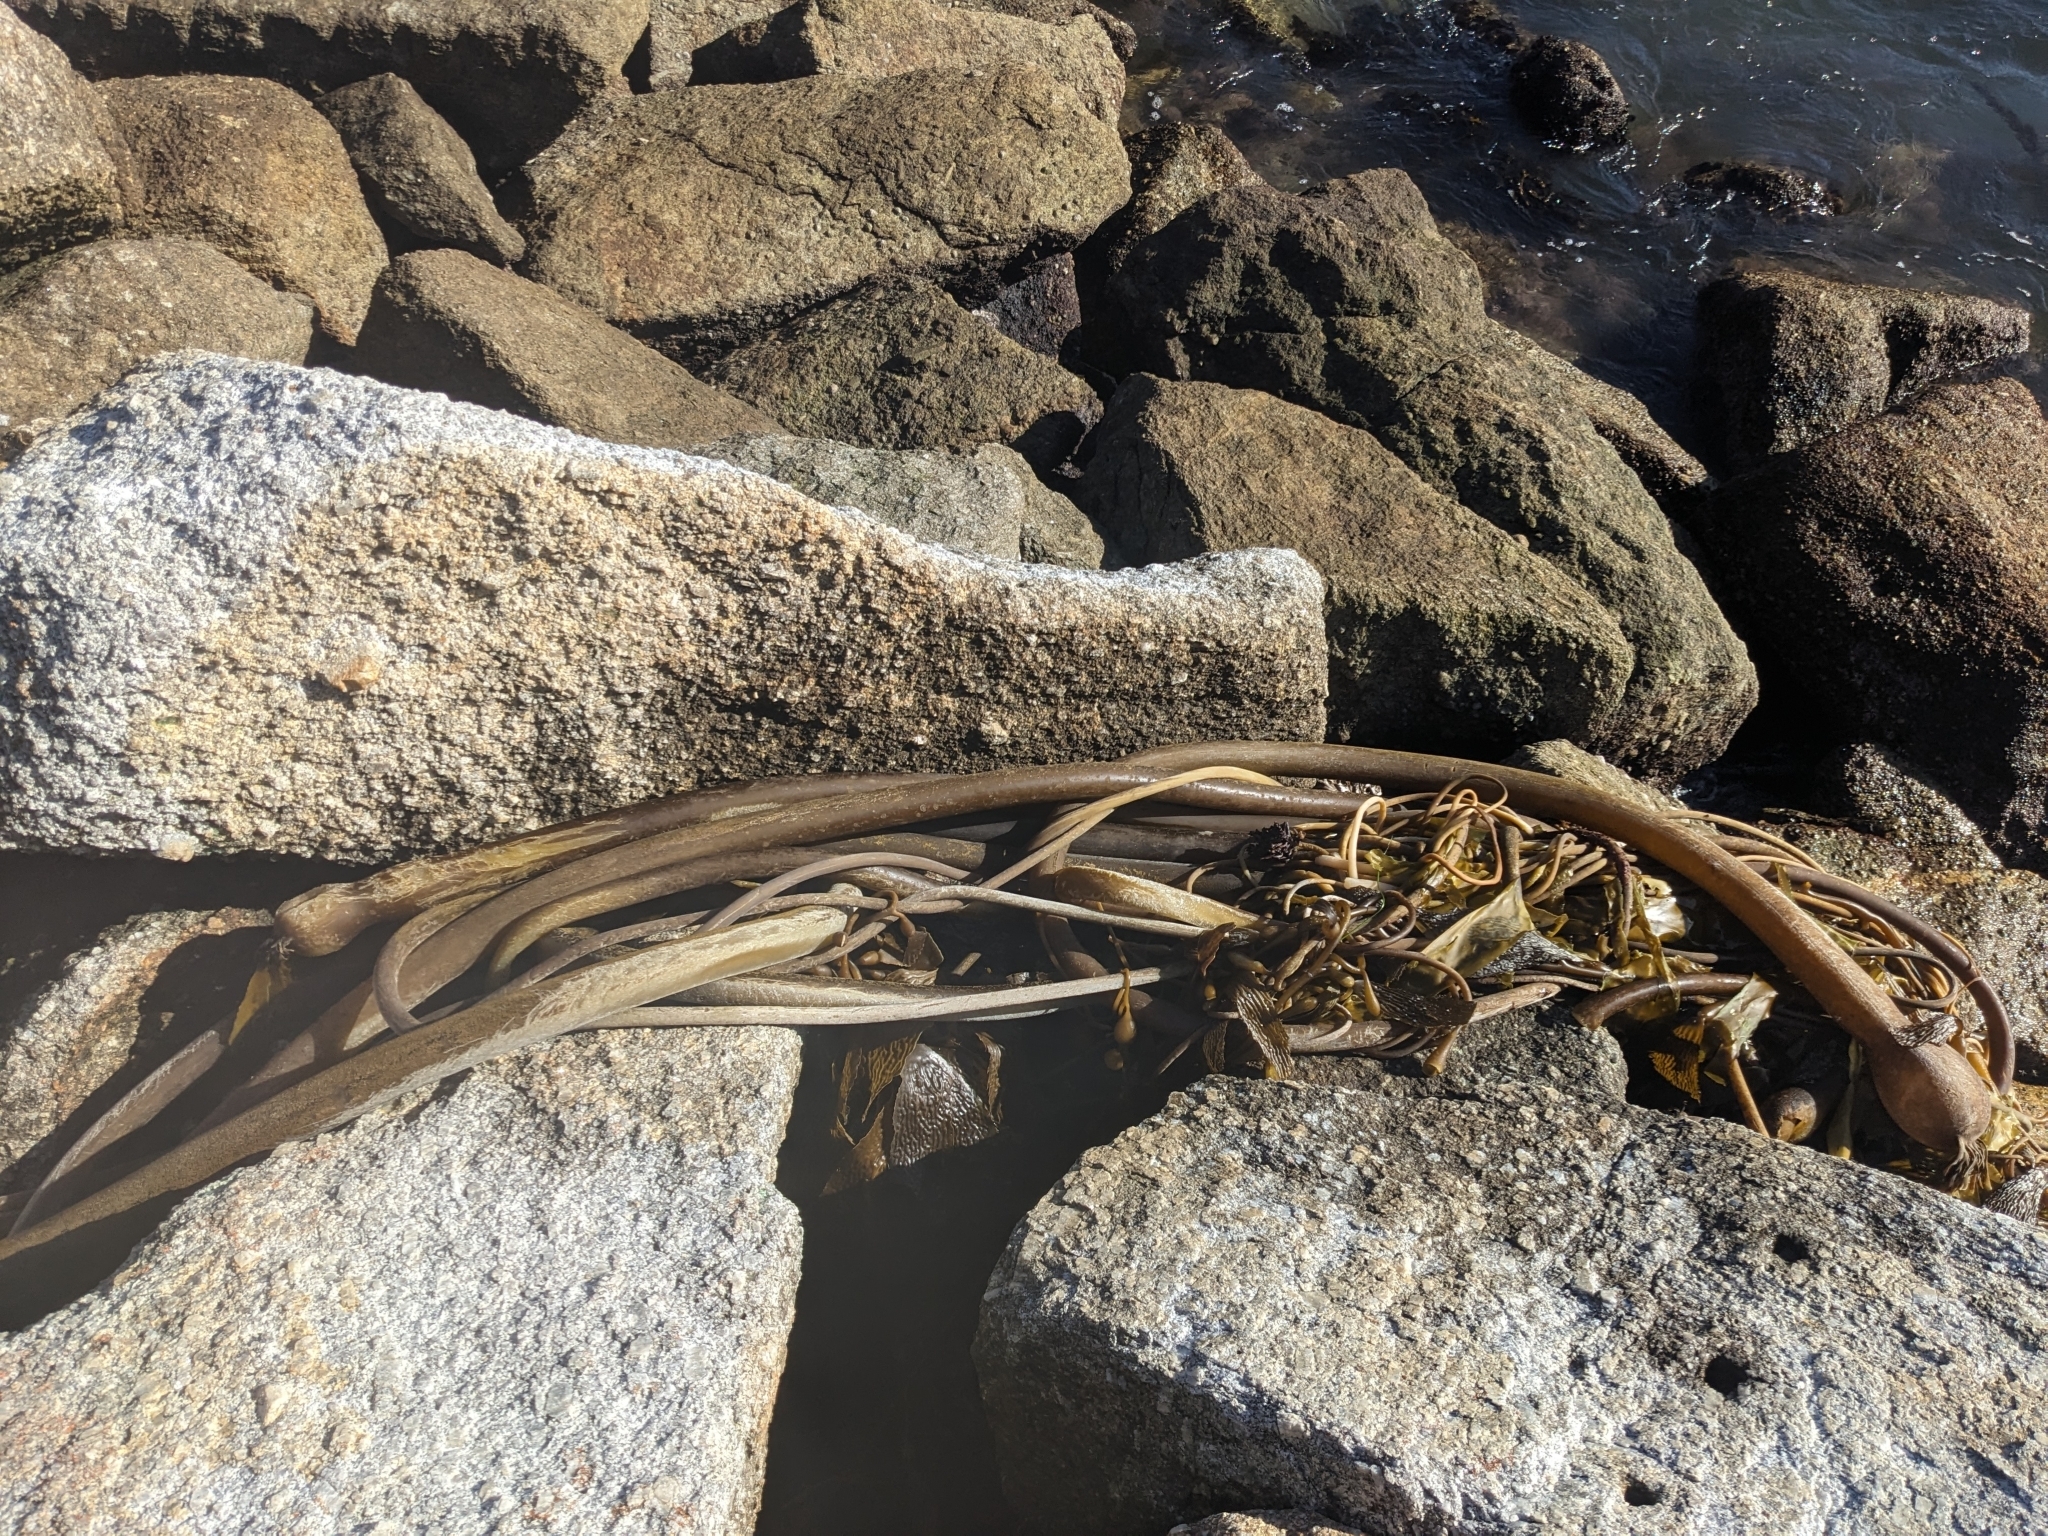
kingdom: Chromista
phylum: Ochrophyta
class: Phaeophyceae
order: Laminariales
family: Laminariaceae
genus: Nereocystis
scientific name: Nereocystis luetkeana
